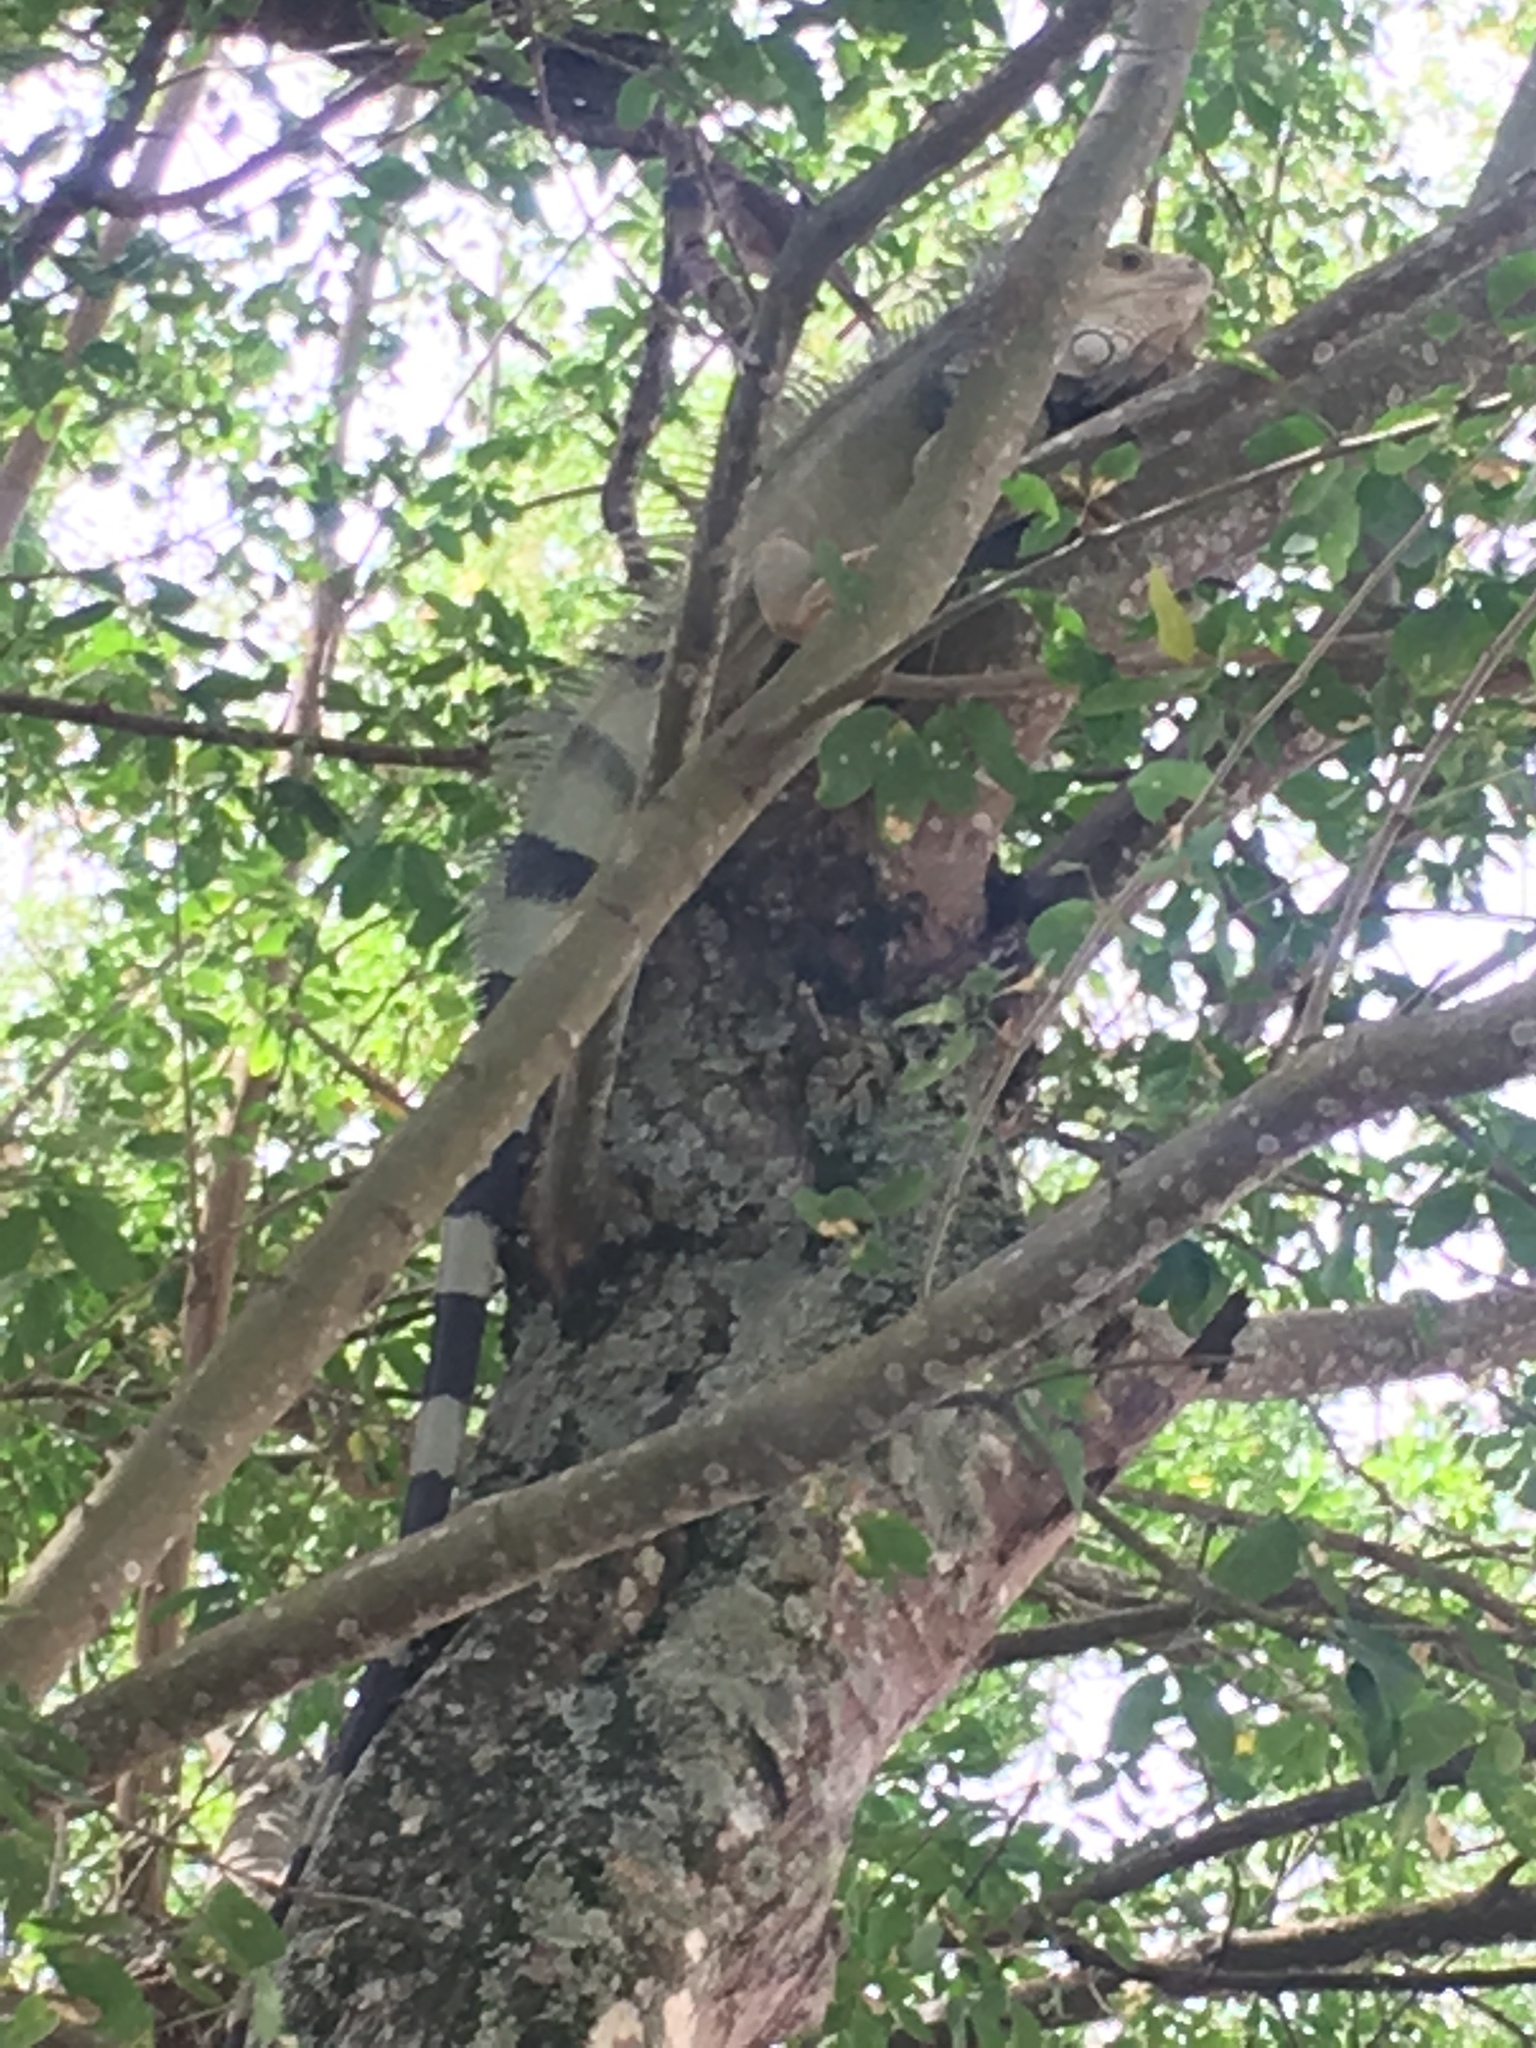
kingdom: Animalia
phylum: Chordata
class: Squamata
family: Iguanidae
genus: Iguana
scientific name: Iguana iguana
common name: Green iguana
